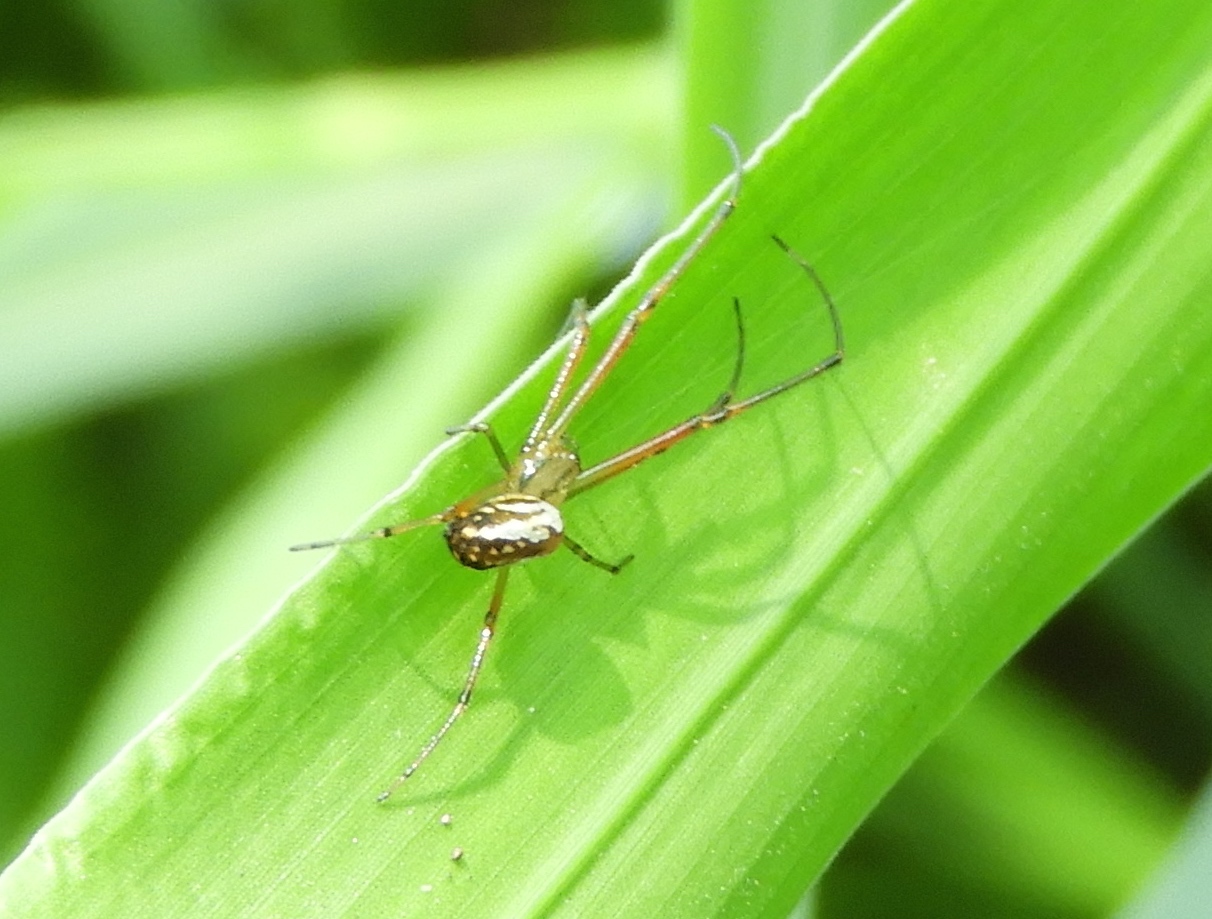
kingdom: Animalia
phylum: Arthropoda
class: Arachnida
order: Araneae
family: Tetragnathidae
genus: Leucauge
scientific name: Leucauge
